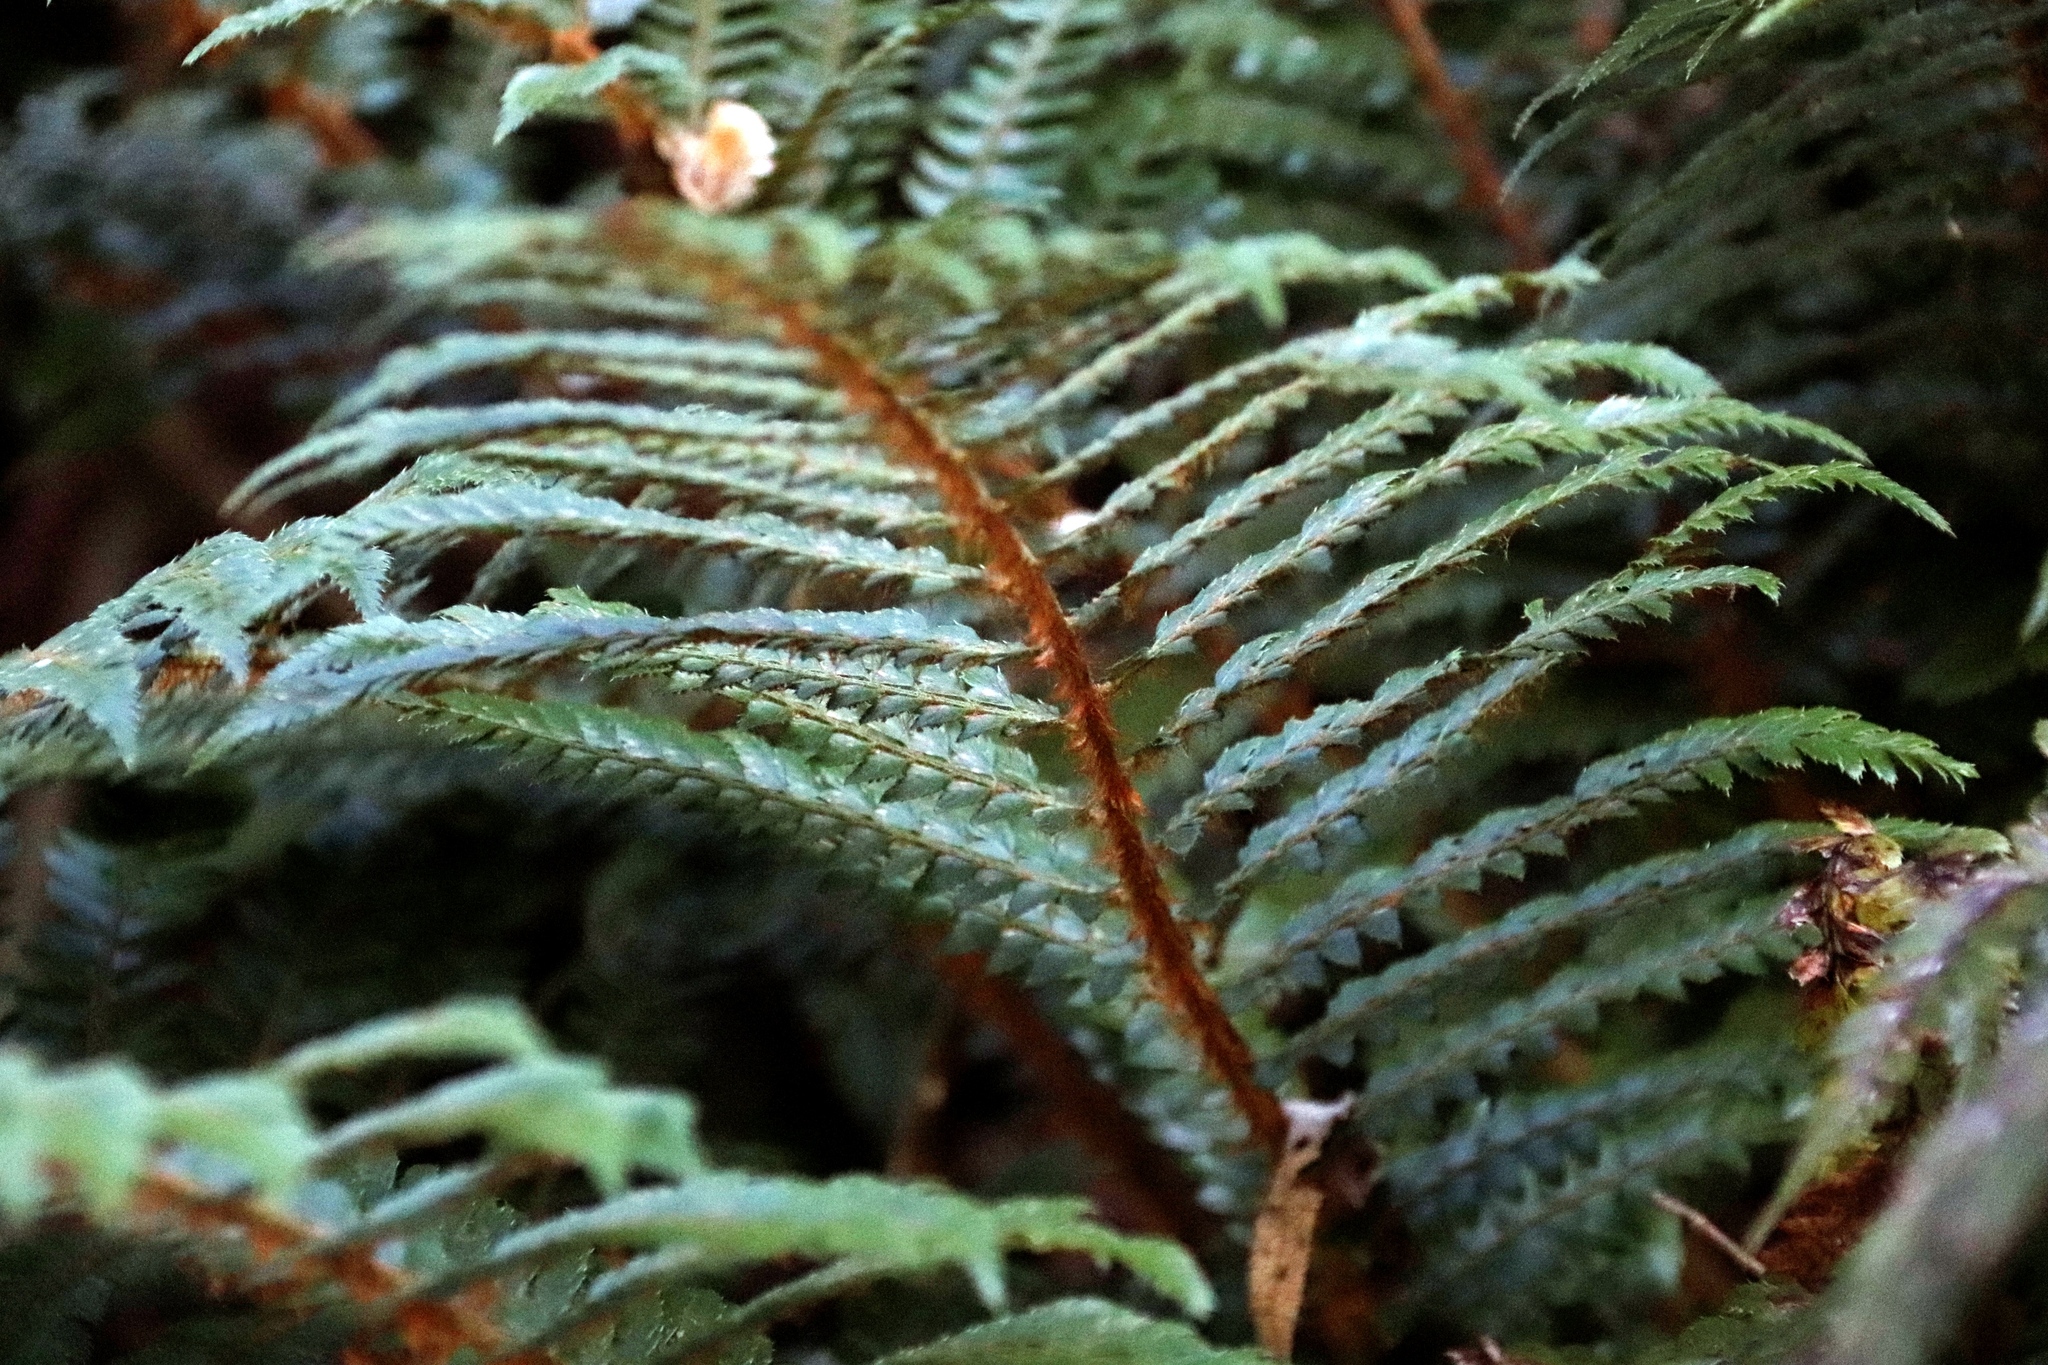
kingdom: Plantae
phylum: Tracheophyta
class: Polypodiopsida
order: Polypodiales
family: Dryopteridaceae
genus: Polystichum
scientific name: Polystichum transvaalense
